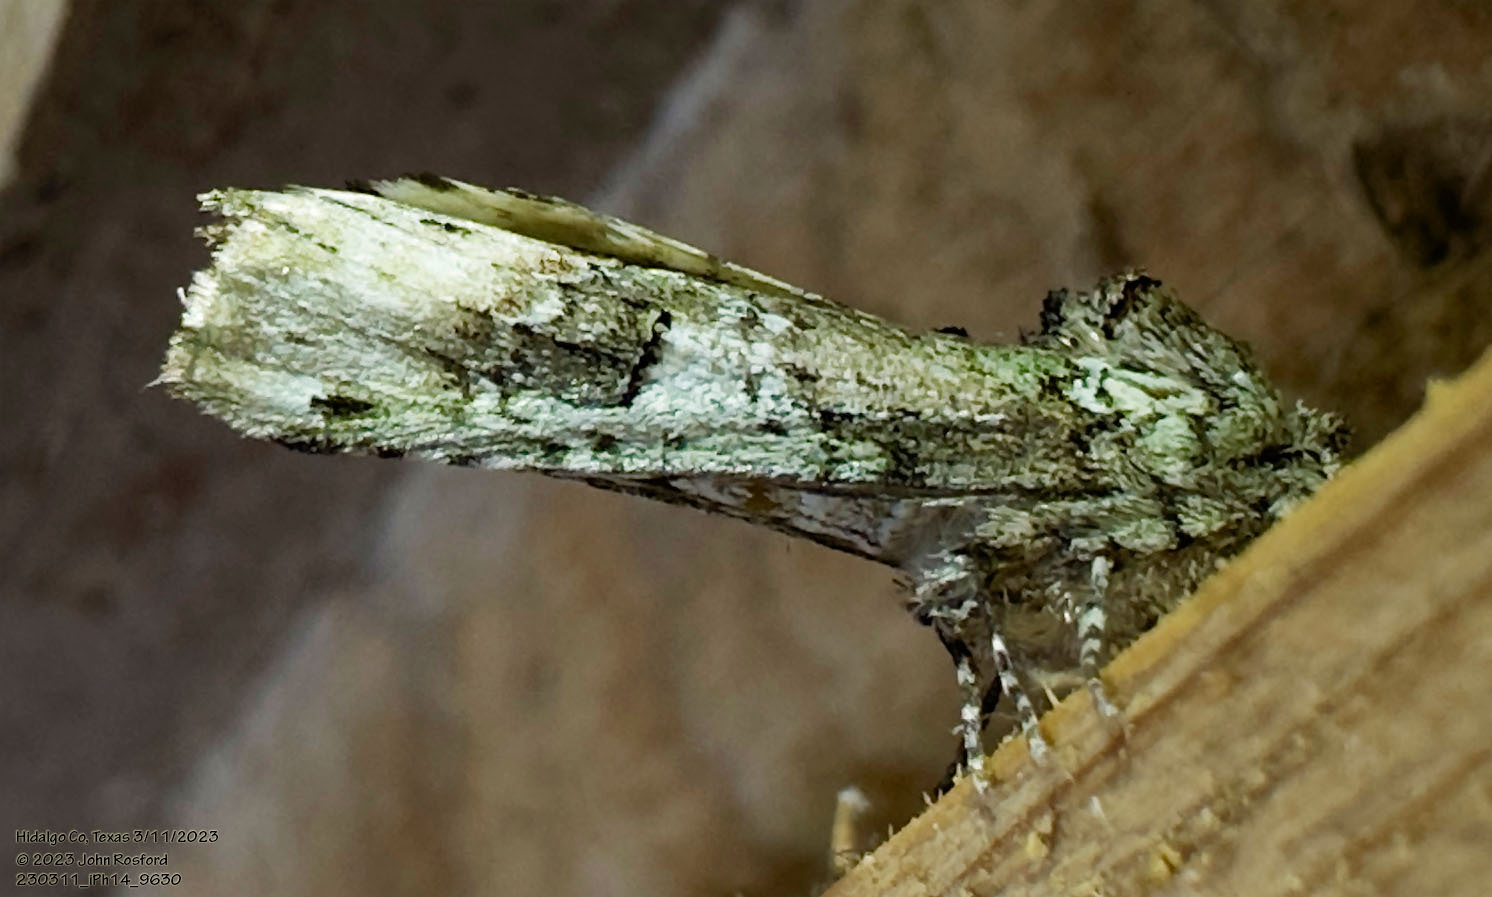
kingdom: Animalia
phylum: Arthropoda
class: Insecta
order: Lepidoptera
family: Notodontidae
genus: Schizura
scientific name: Schizura
